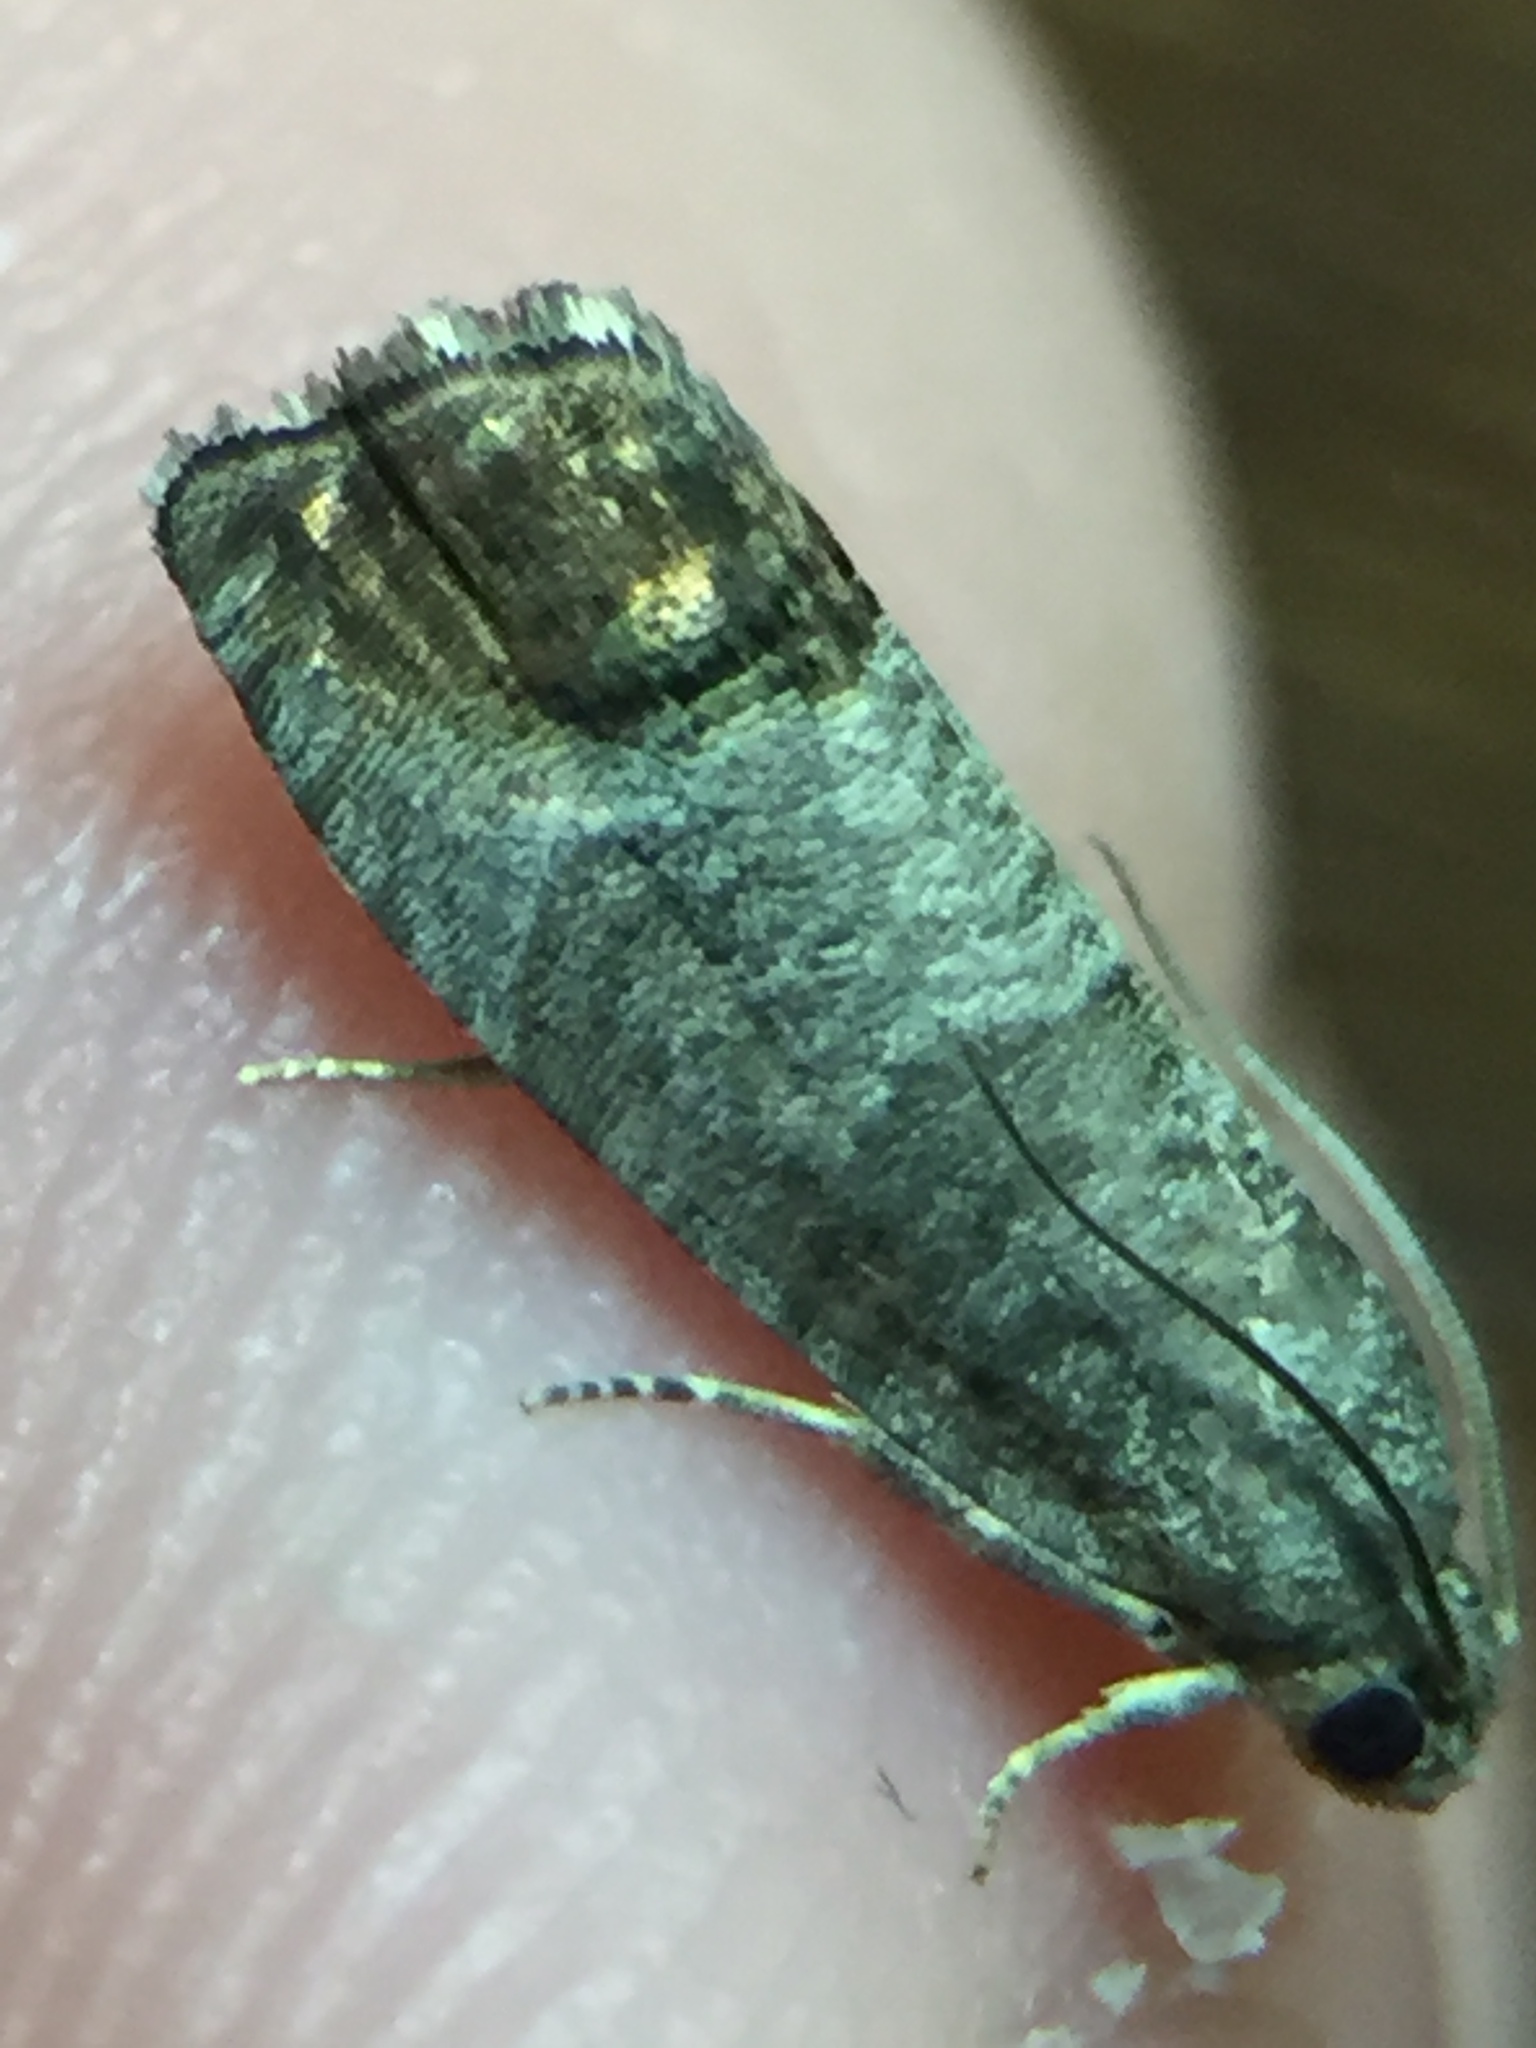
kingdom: Animalia
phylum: Arthropoda
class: Insecta
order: Lepidoptera
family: Tortricidae
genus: Cydia
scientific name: Cydia pomonella
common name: Codling moth
